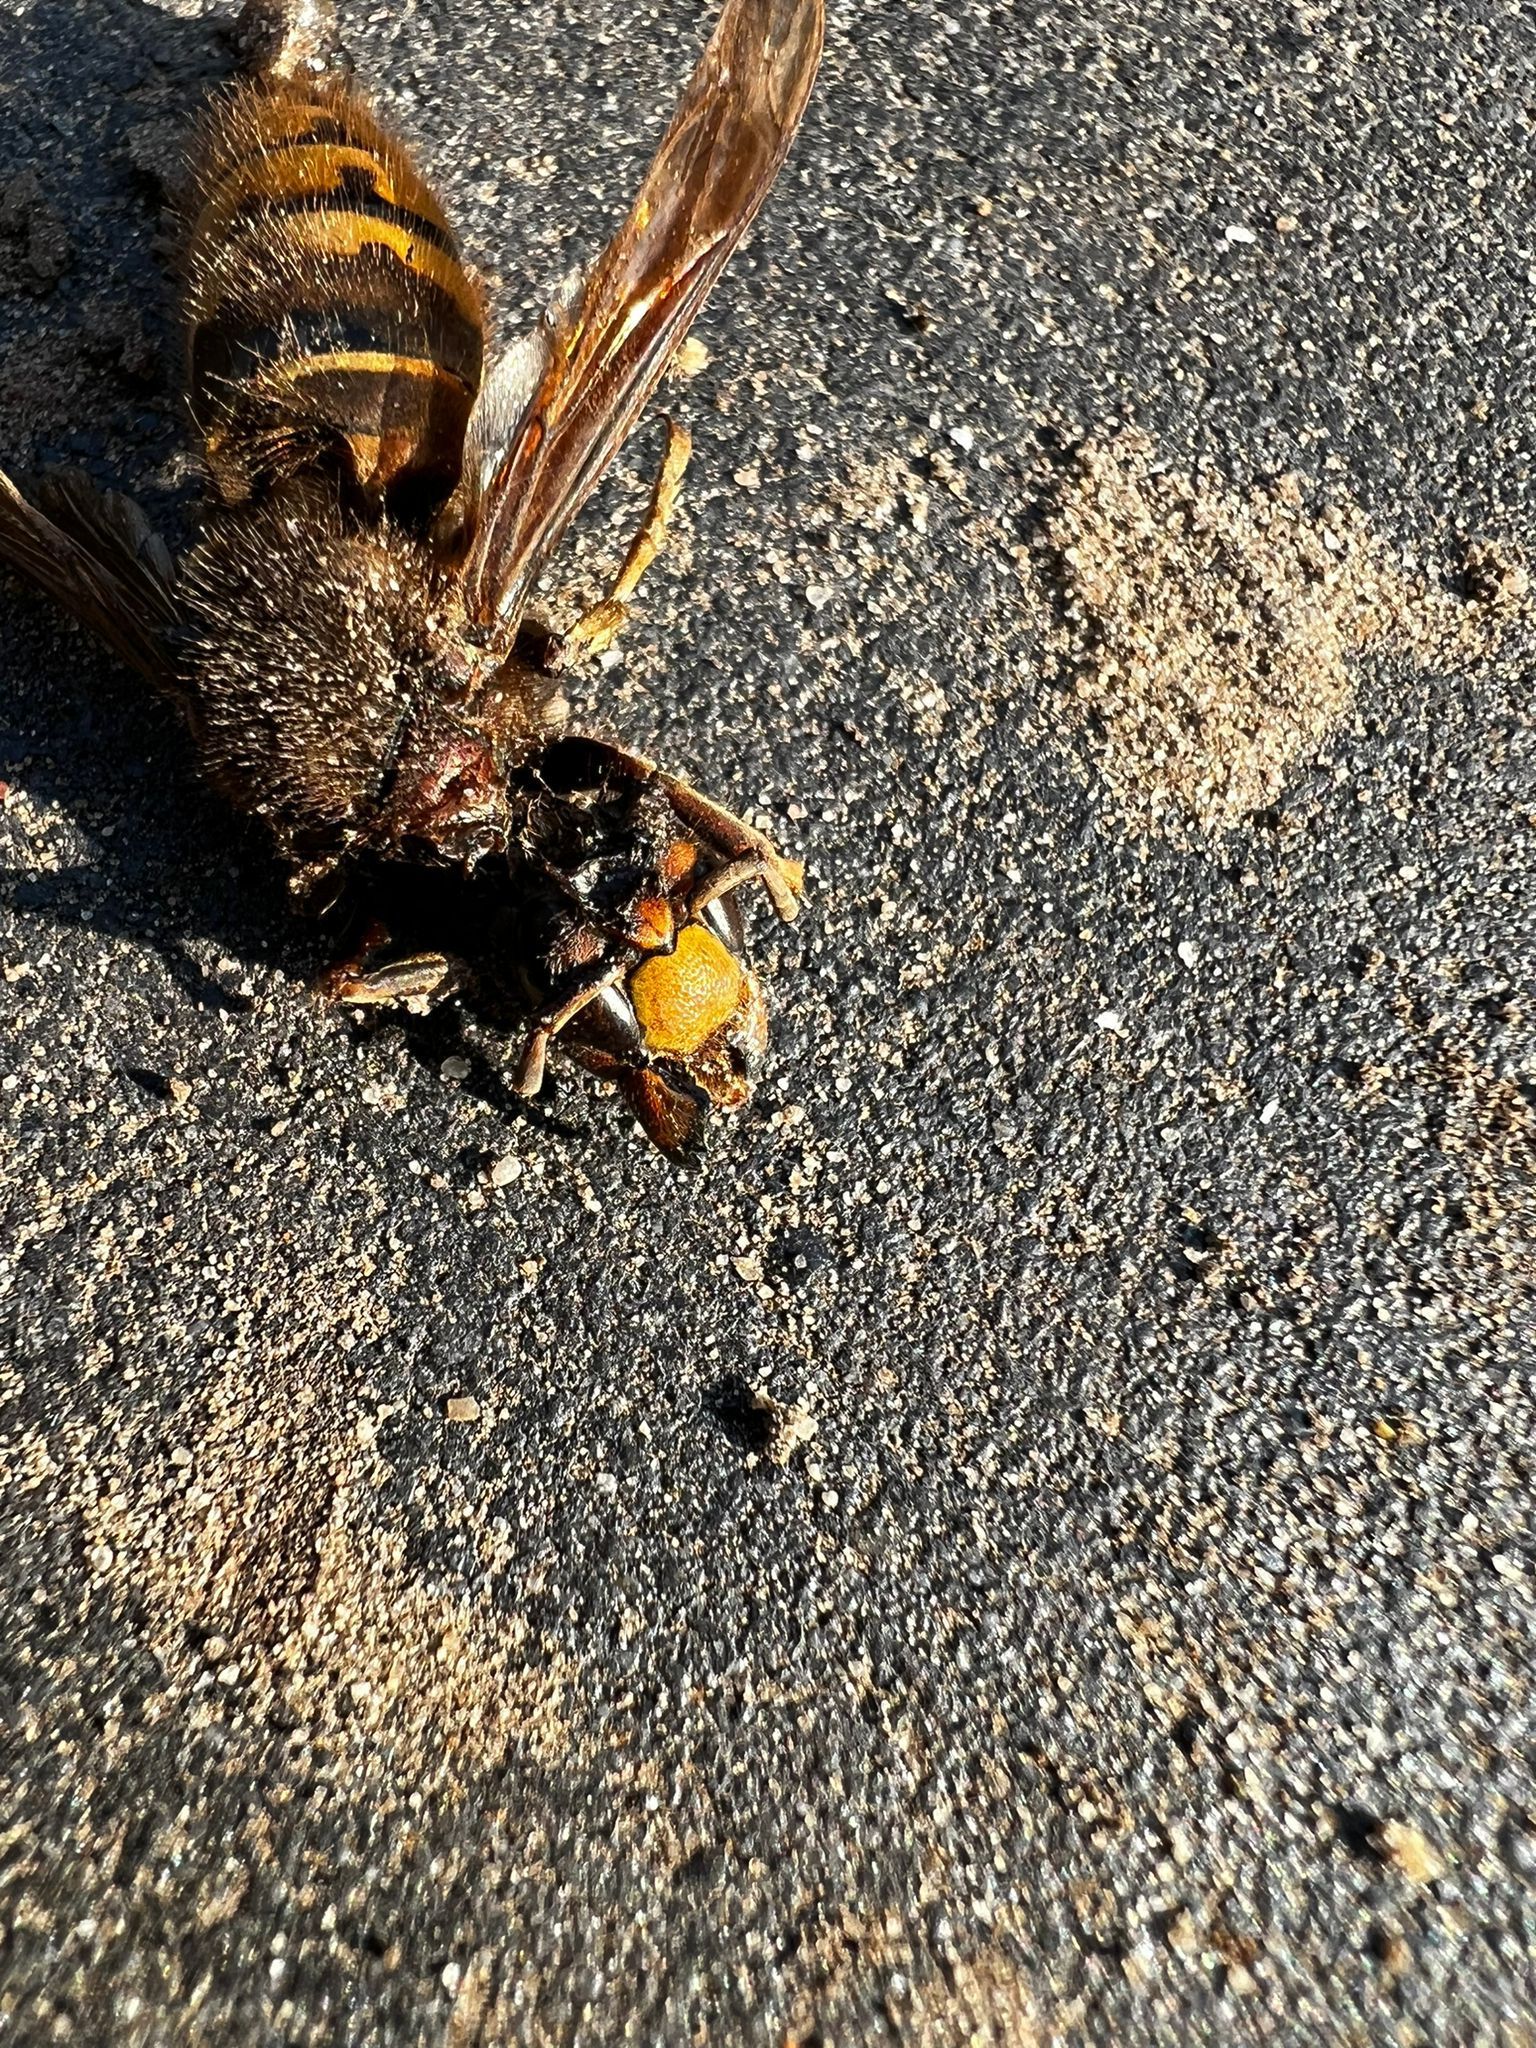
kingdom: Animalia
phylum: Arthropoda
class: Insecta
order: Hymenoptera
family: Vespidae
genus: Vespa
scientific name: Vespa crabro
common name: Hornet
